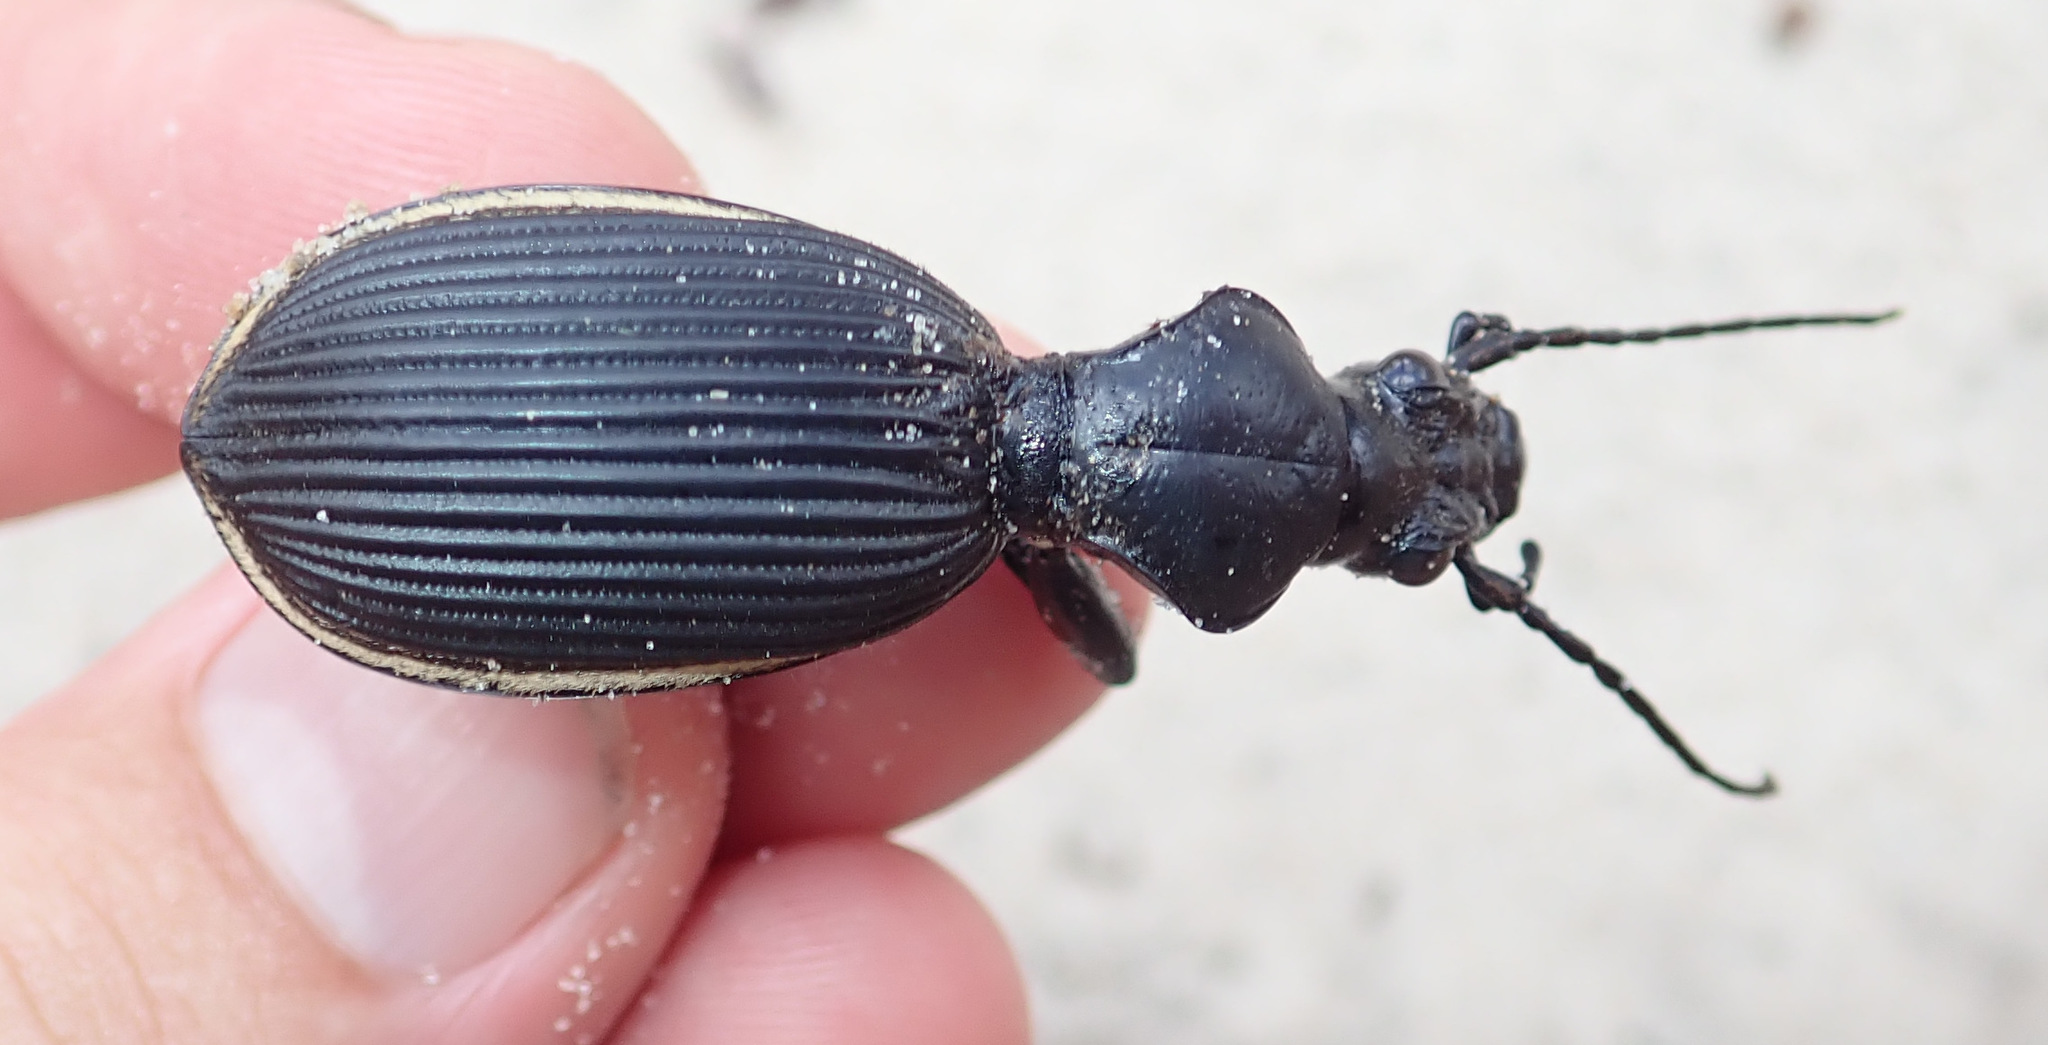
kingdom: Animalia
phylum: Arthropoda
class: Insecta
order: Coleoptera
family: Carabidae
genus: Anthia
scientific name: Anthia massilicata
